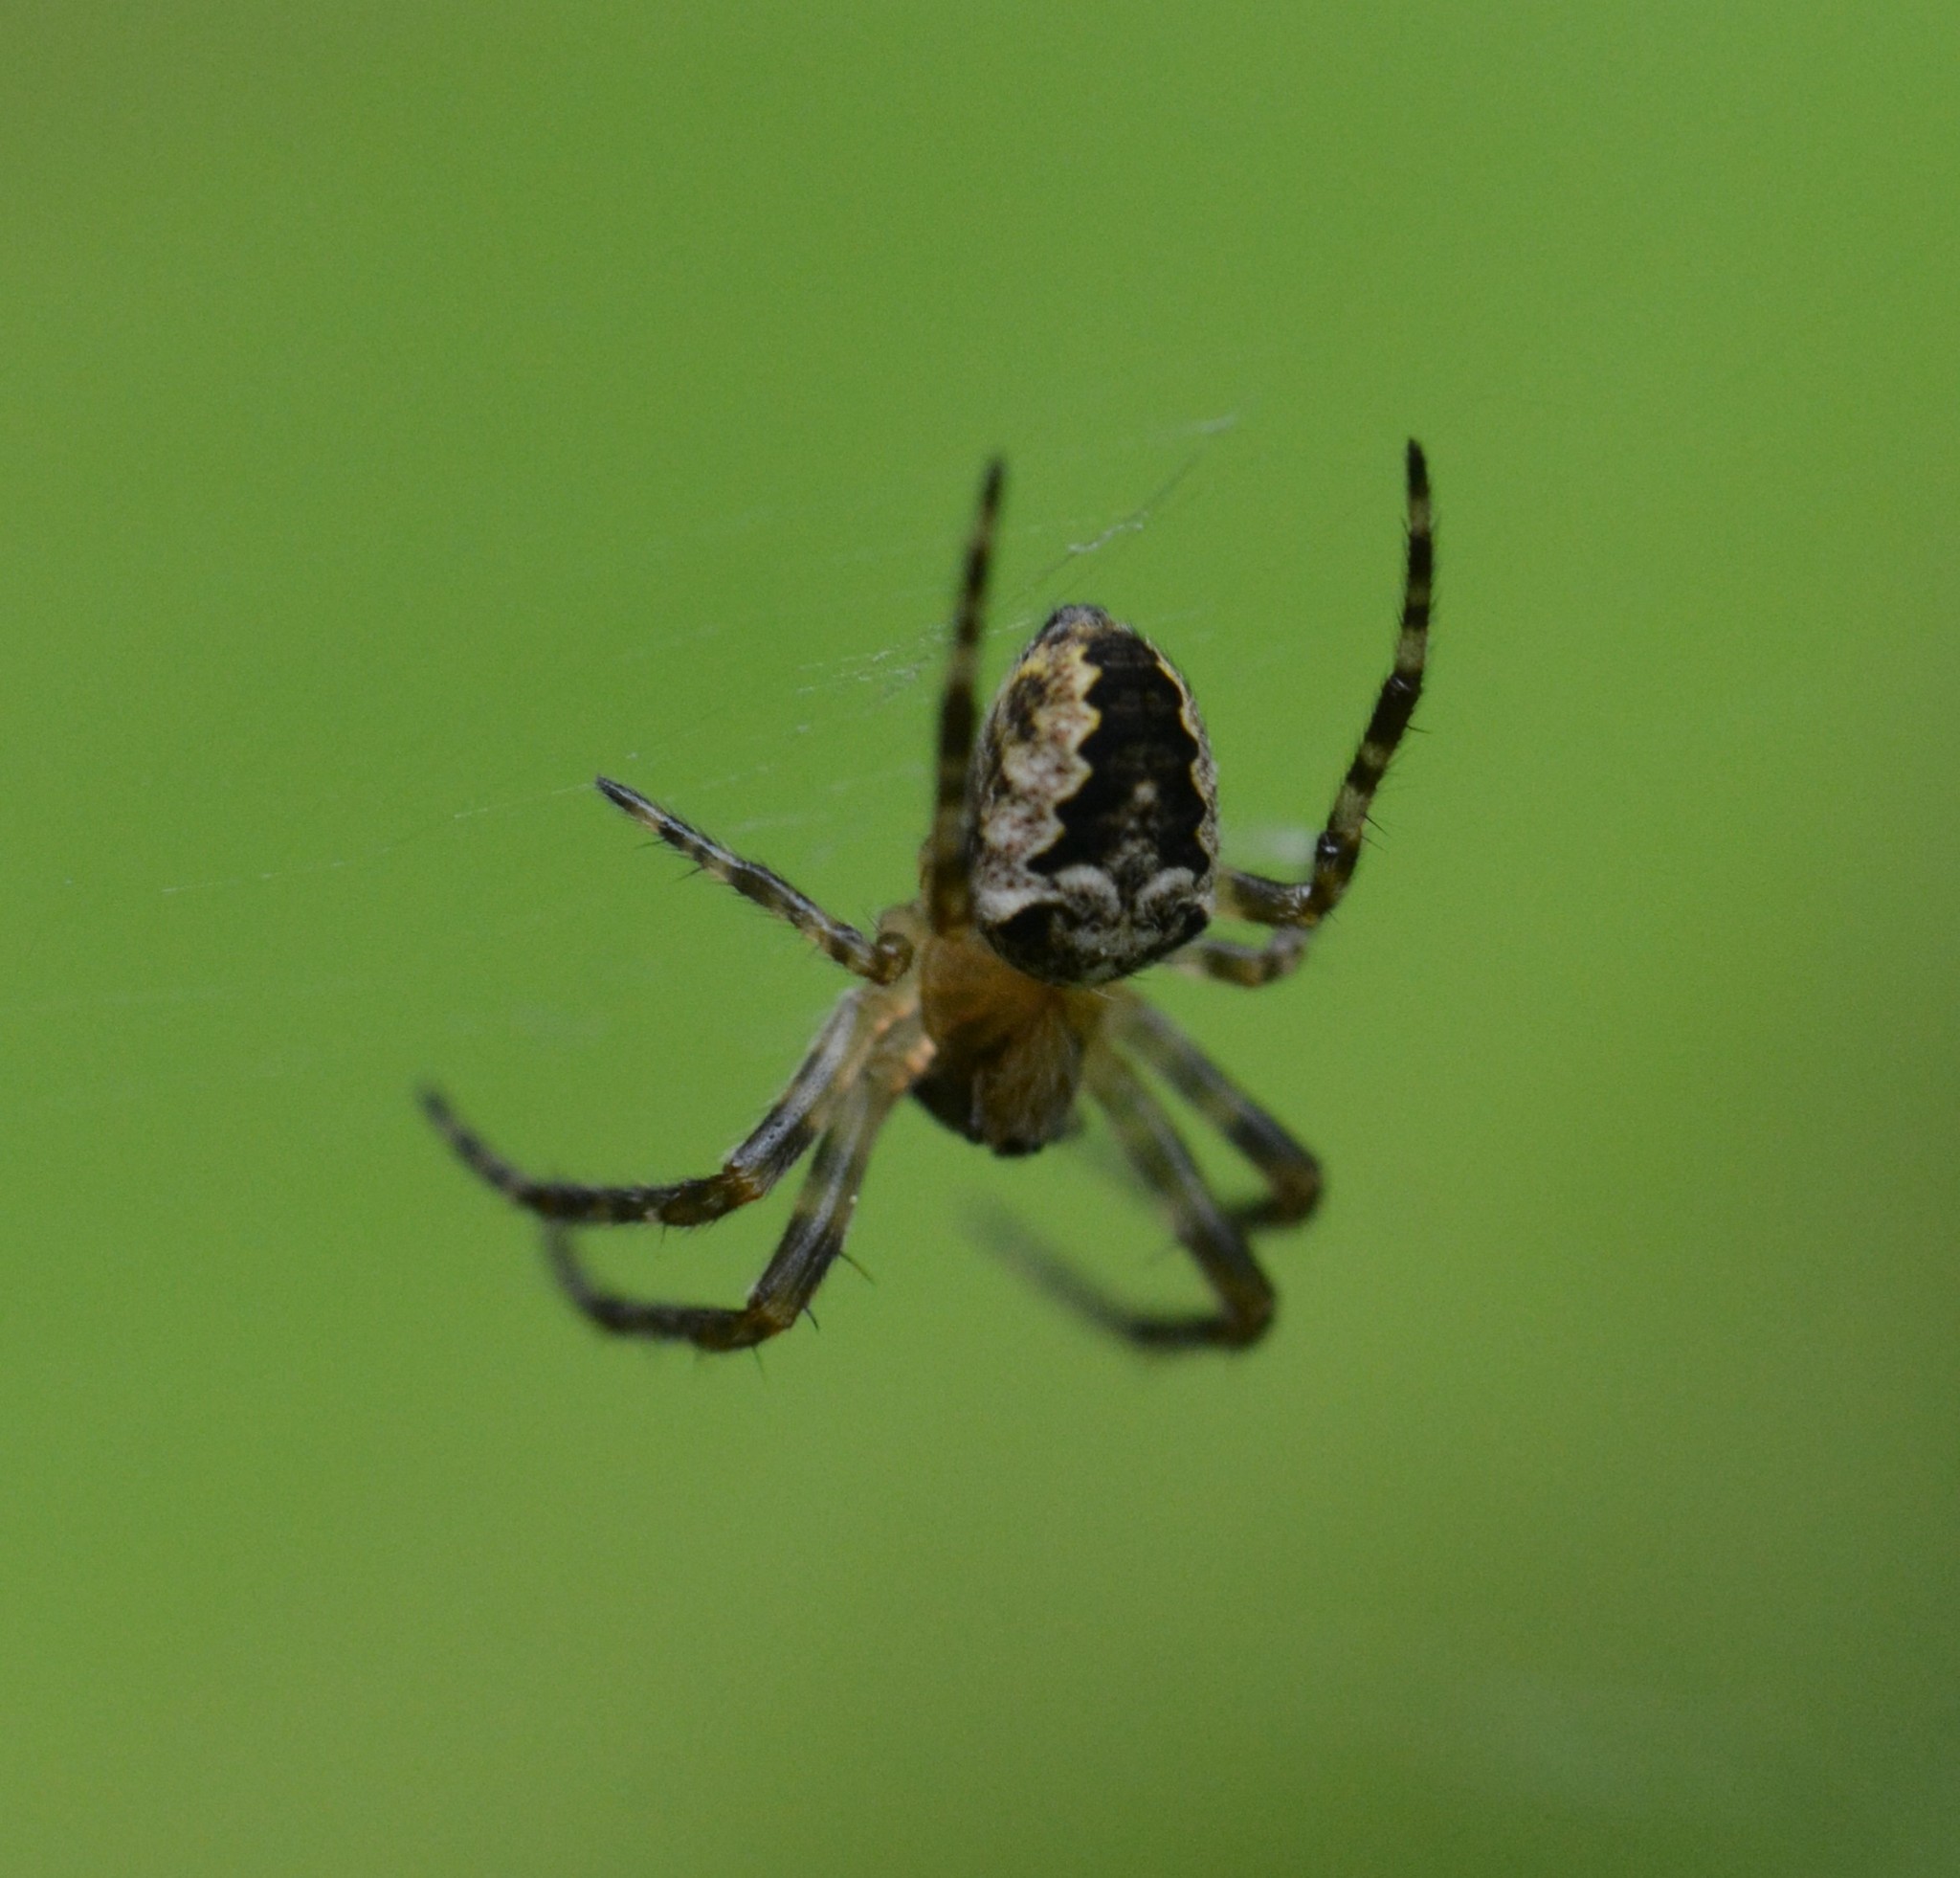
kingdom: Animalia
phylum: Arthropoda
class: Arachnida
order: Araneae
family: Araneidae
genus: Araneus
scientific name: Araneus nordmanni
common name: Nordmann's orbweaver
